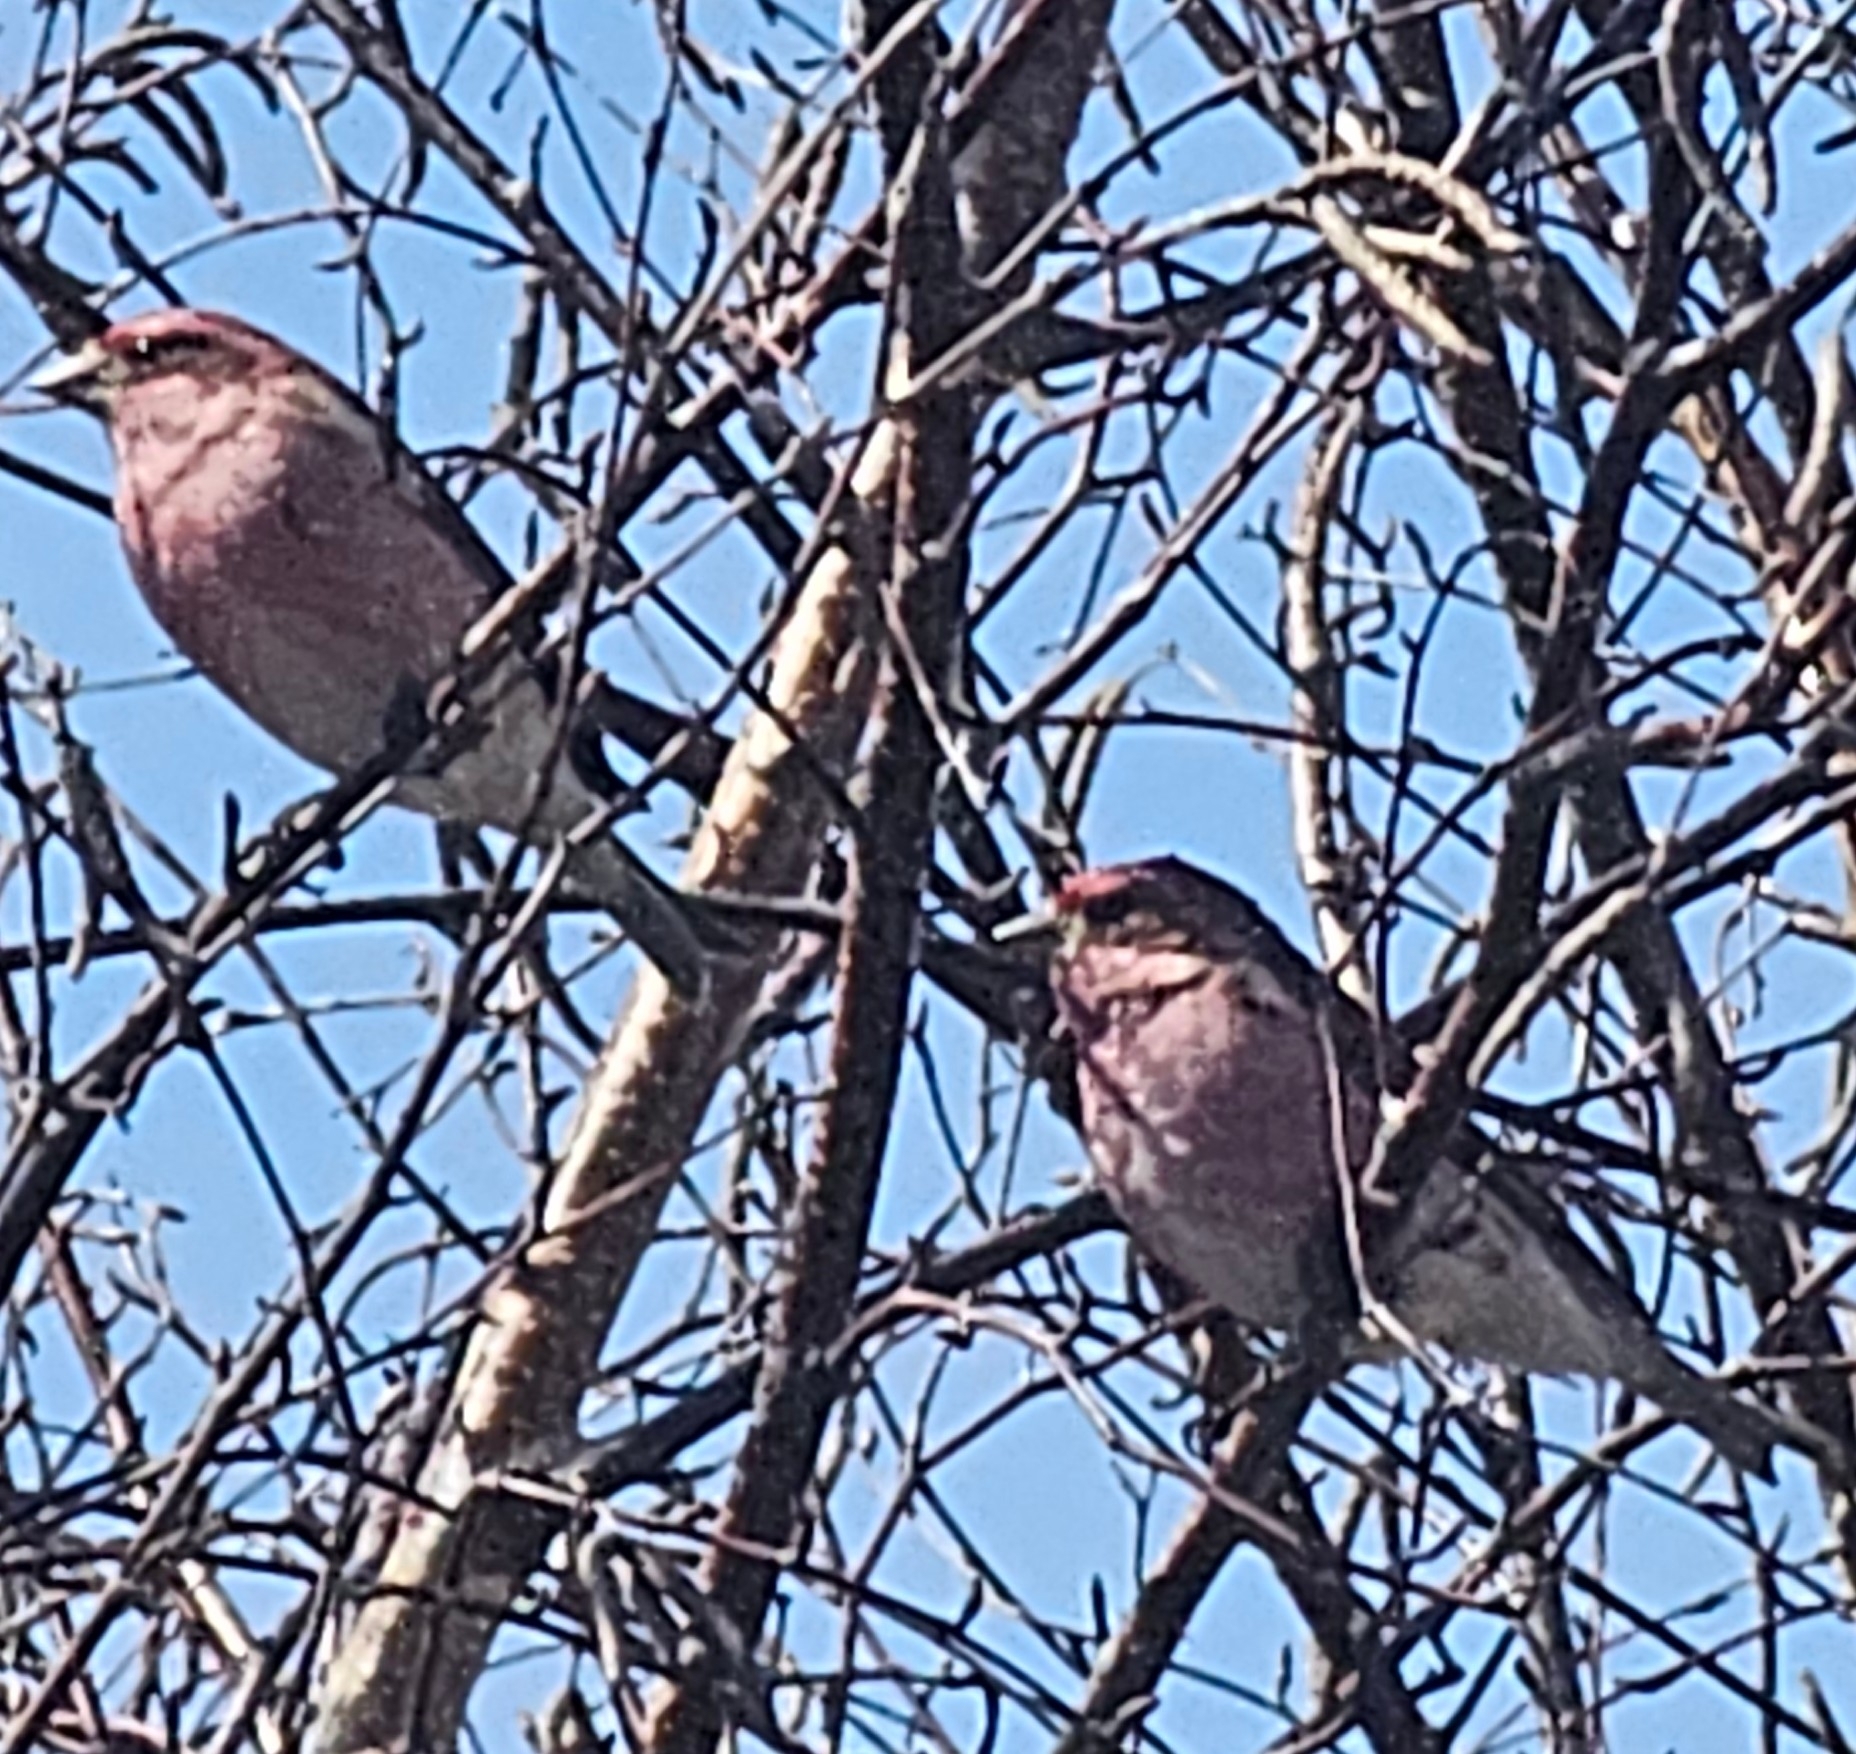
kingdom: Animalia
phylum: Chordata
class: Aves
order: Passeriformes
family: Fringillidae
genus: Haemorhous
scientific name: Haemorhous purpureus
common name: Purple finch
